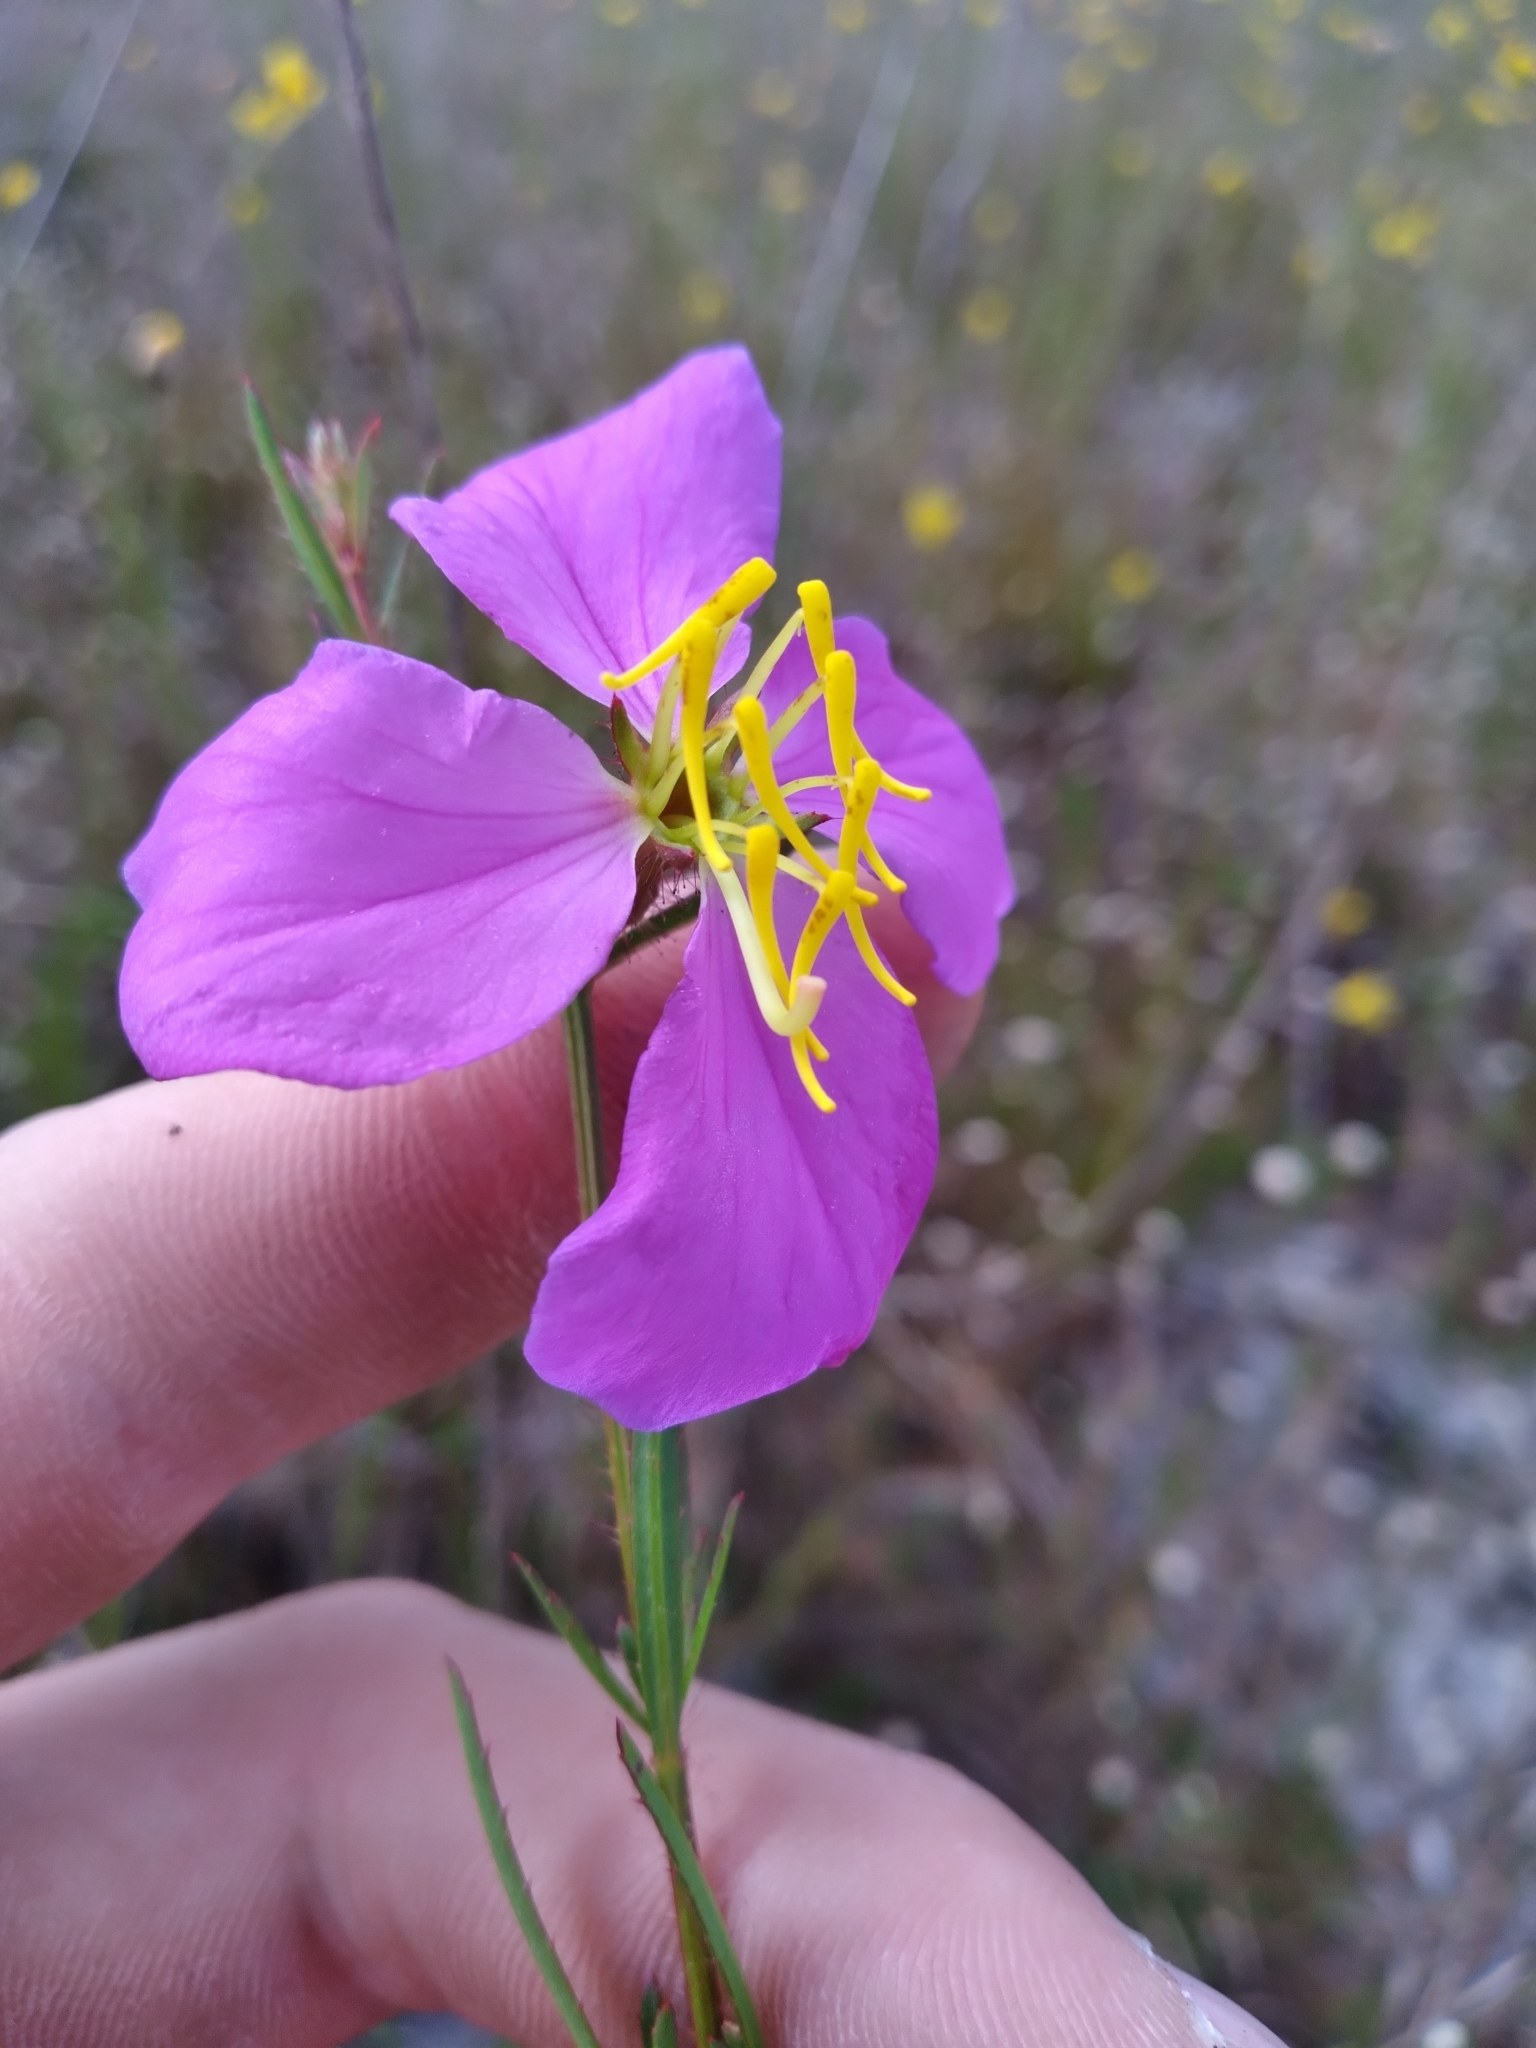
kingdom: Plantae
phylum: Tracheophyta
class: Magnoliopsida
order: Myrtales
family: Melastomataceae
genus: Rhexia
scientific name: Rhexia cubensis
